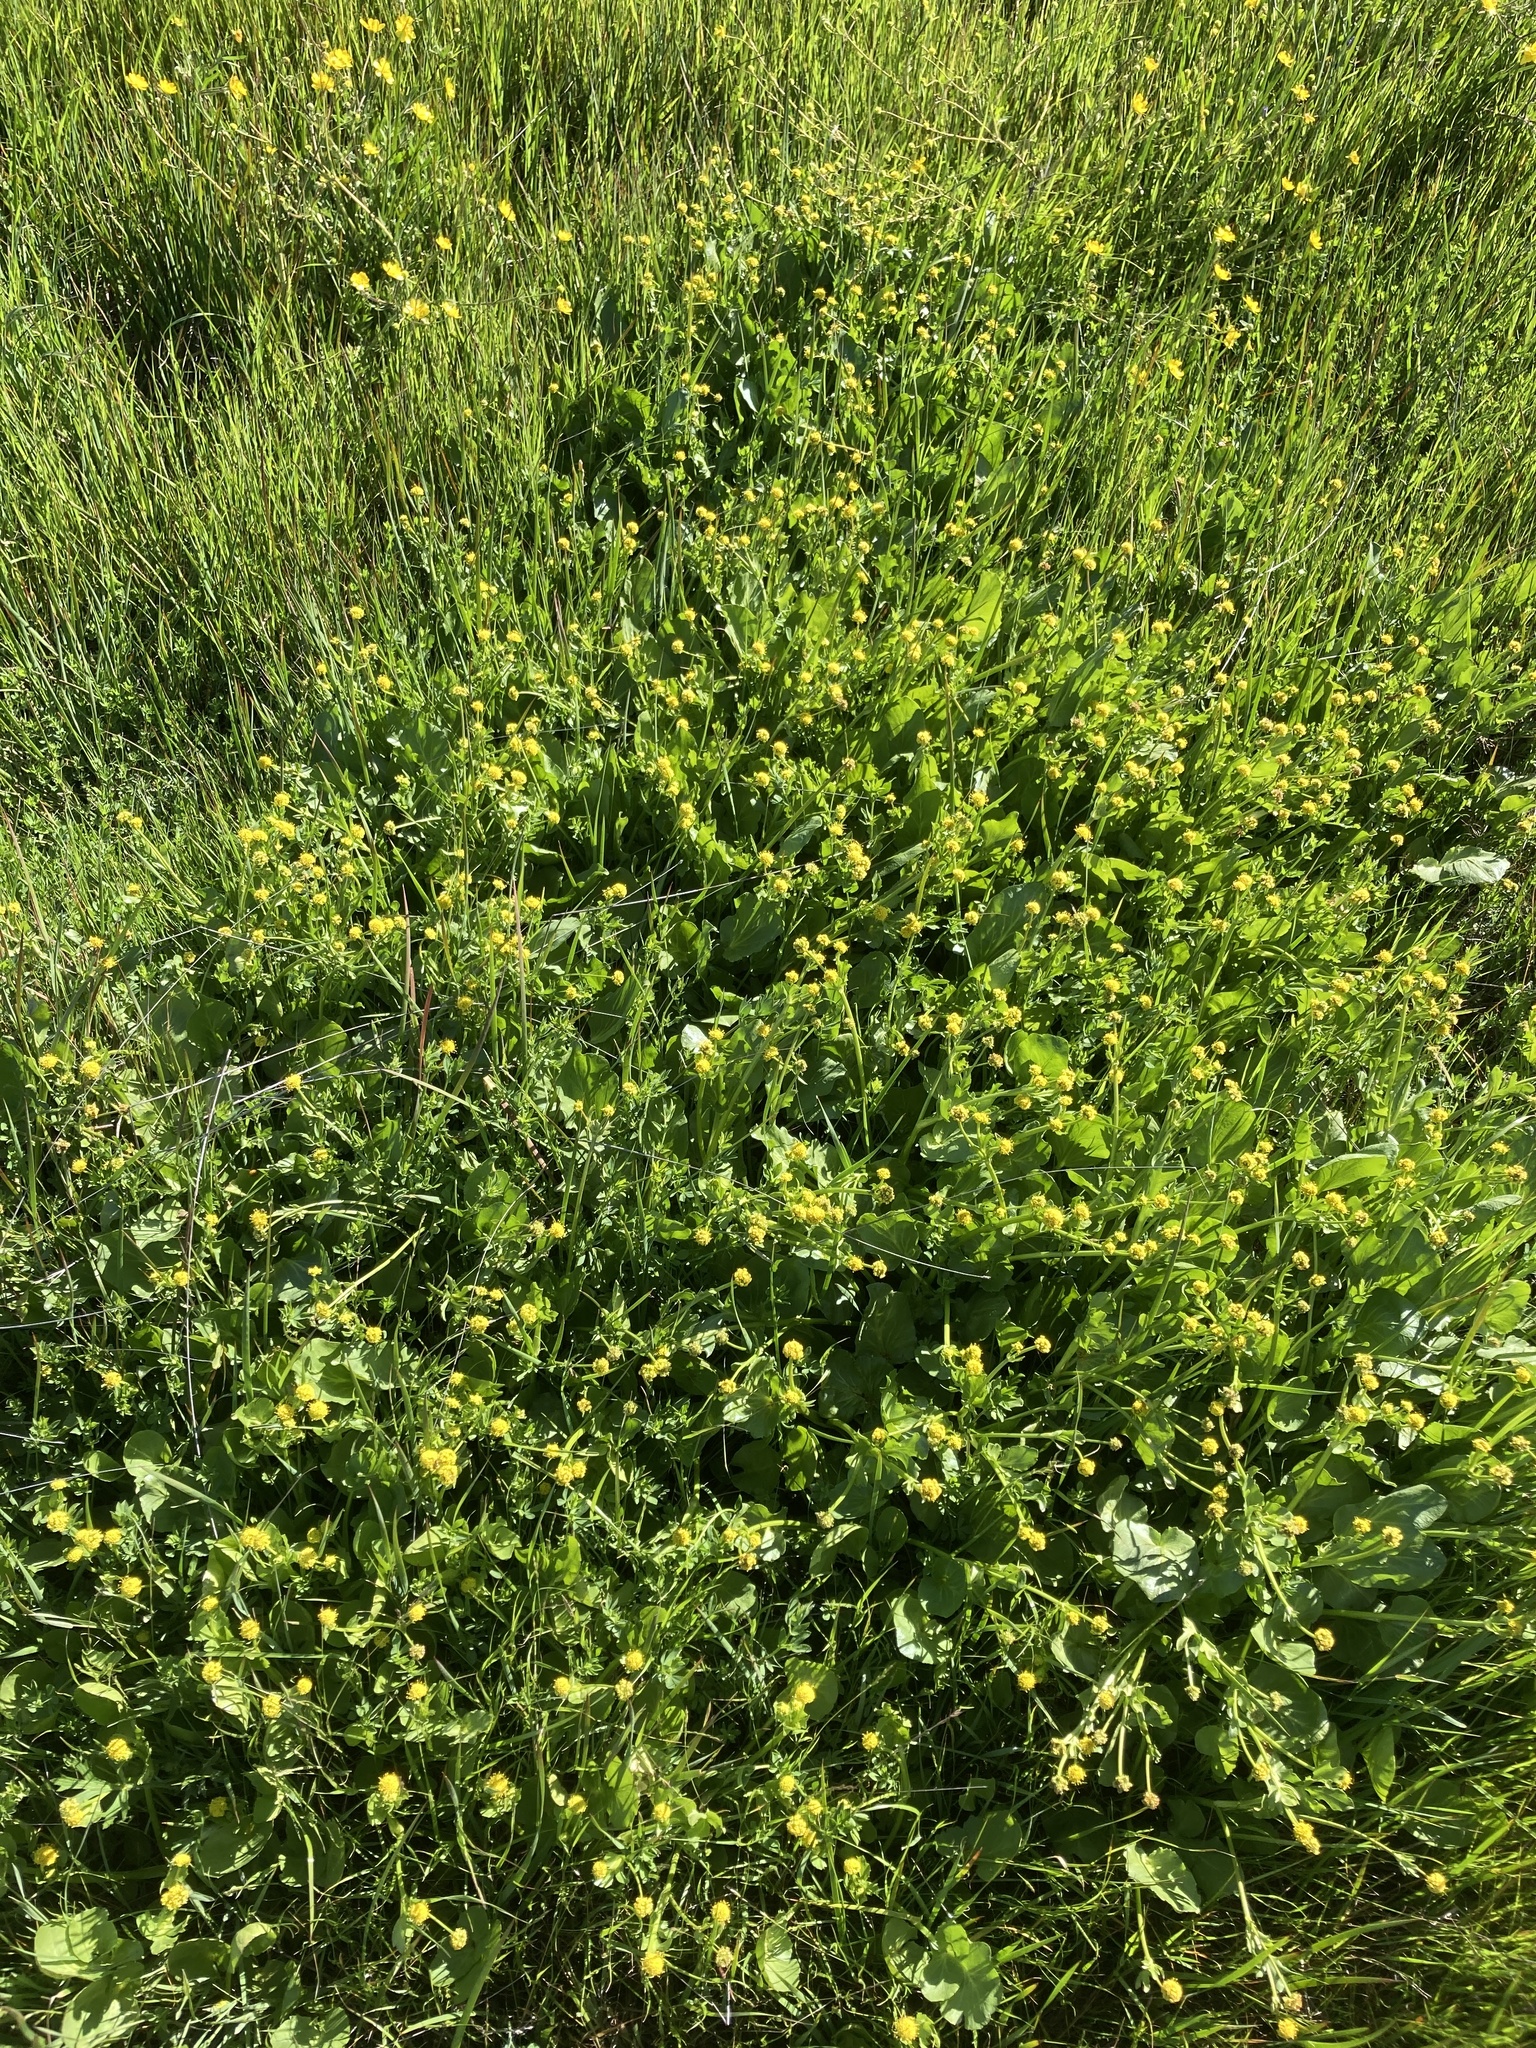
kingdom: Plantae
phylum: Tracheophyta
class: Magnoliopsida
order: Apiales
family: Apiaceae
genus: Sanicula
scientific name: Sanicula maritima
